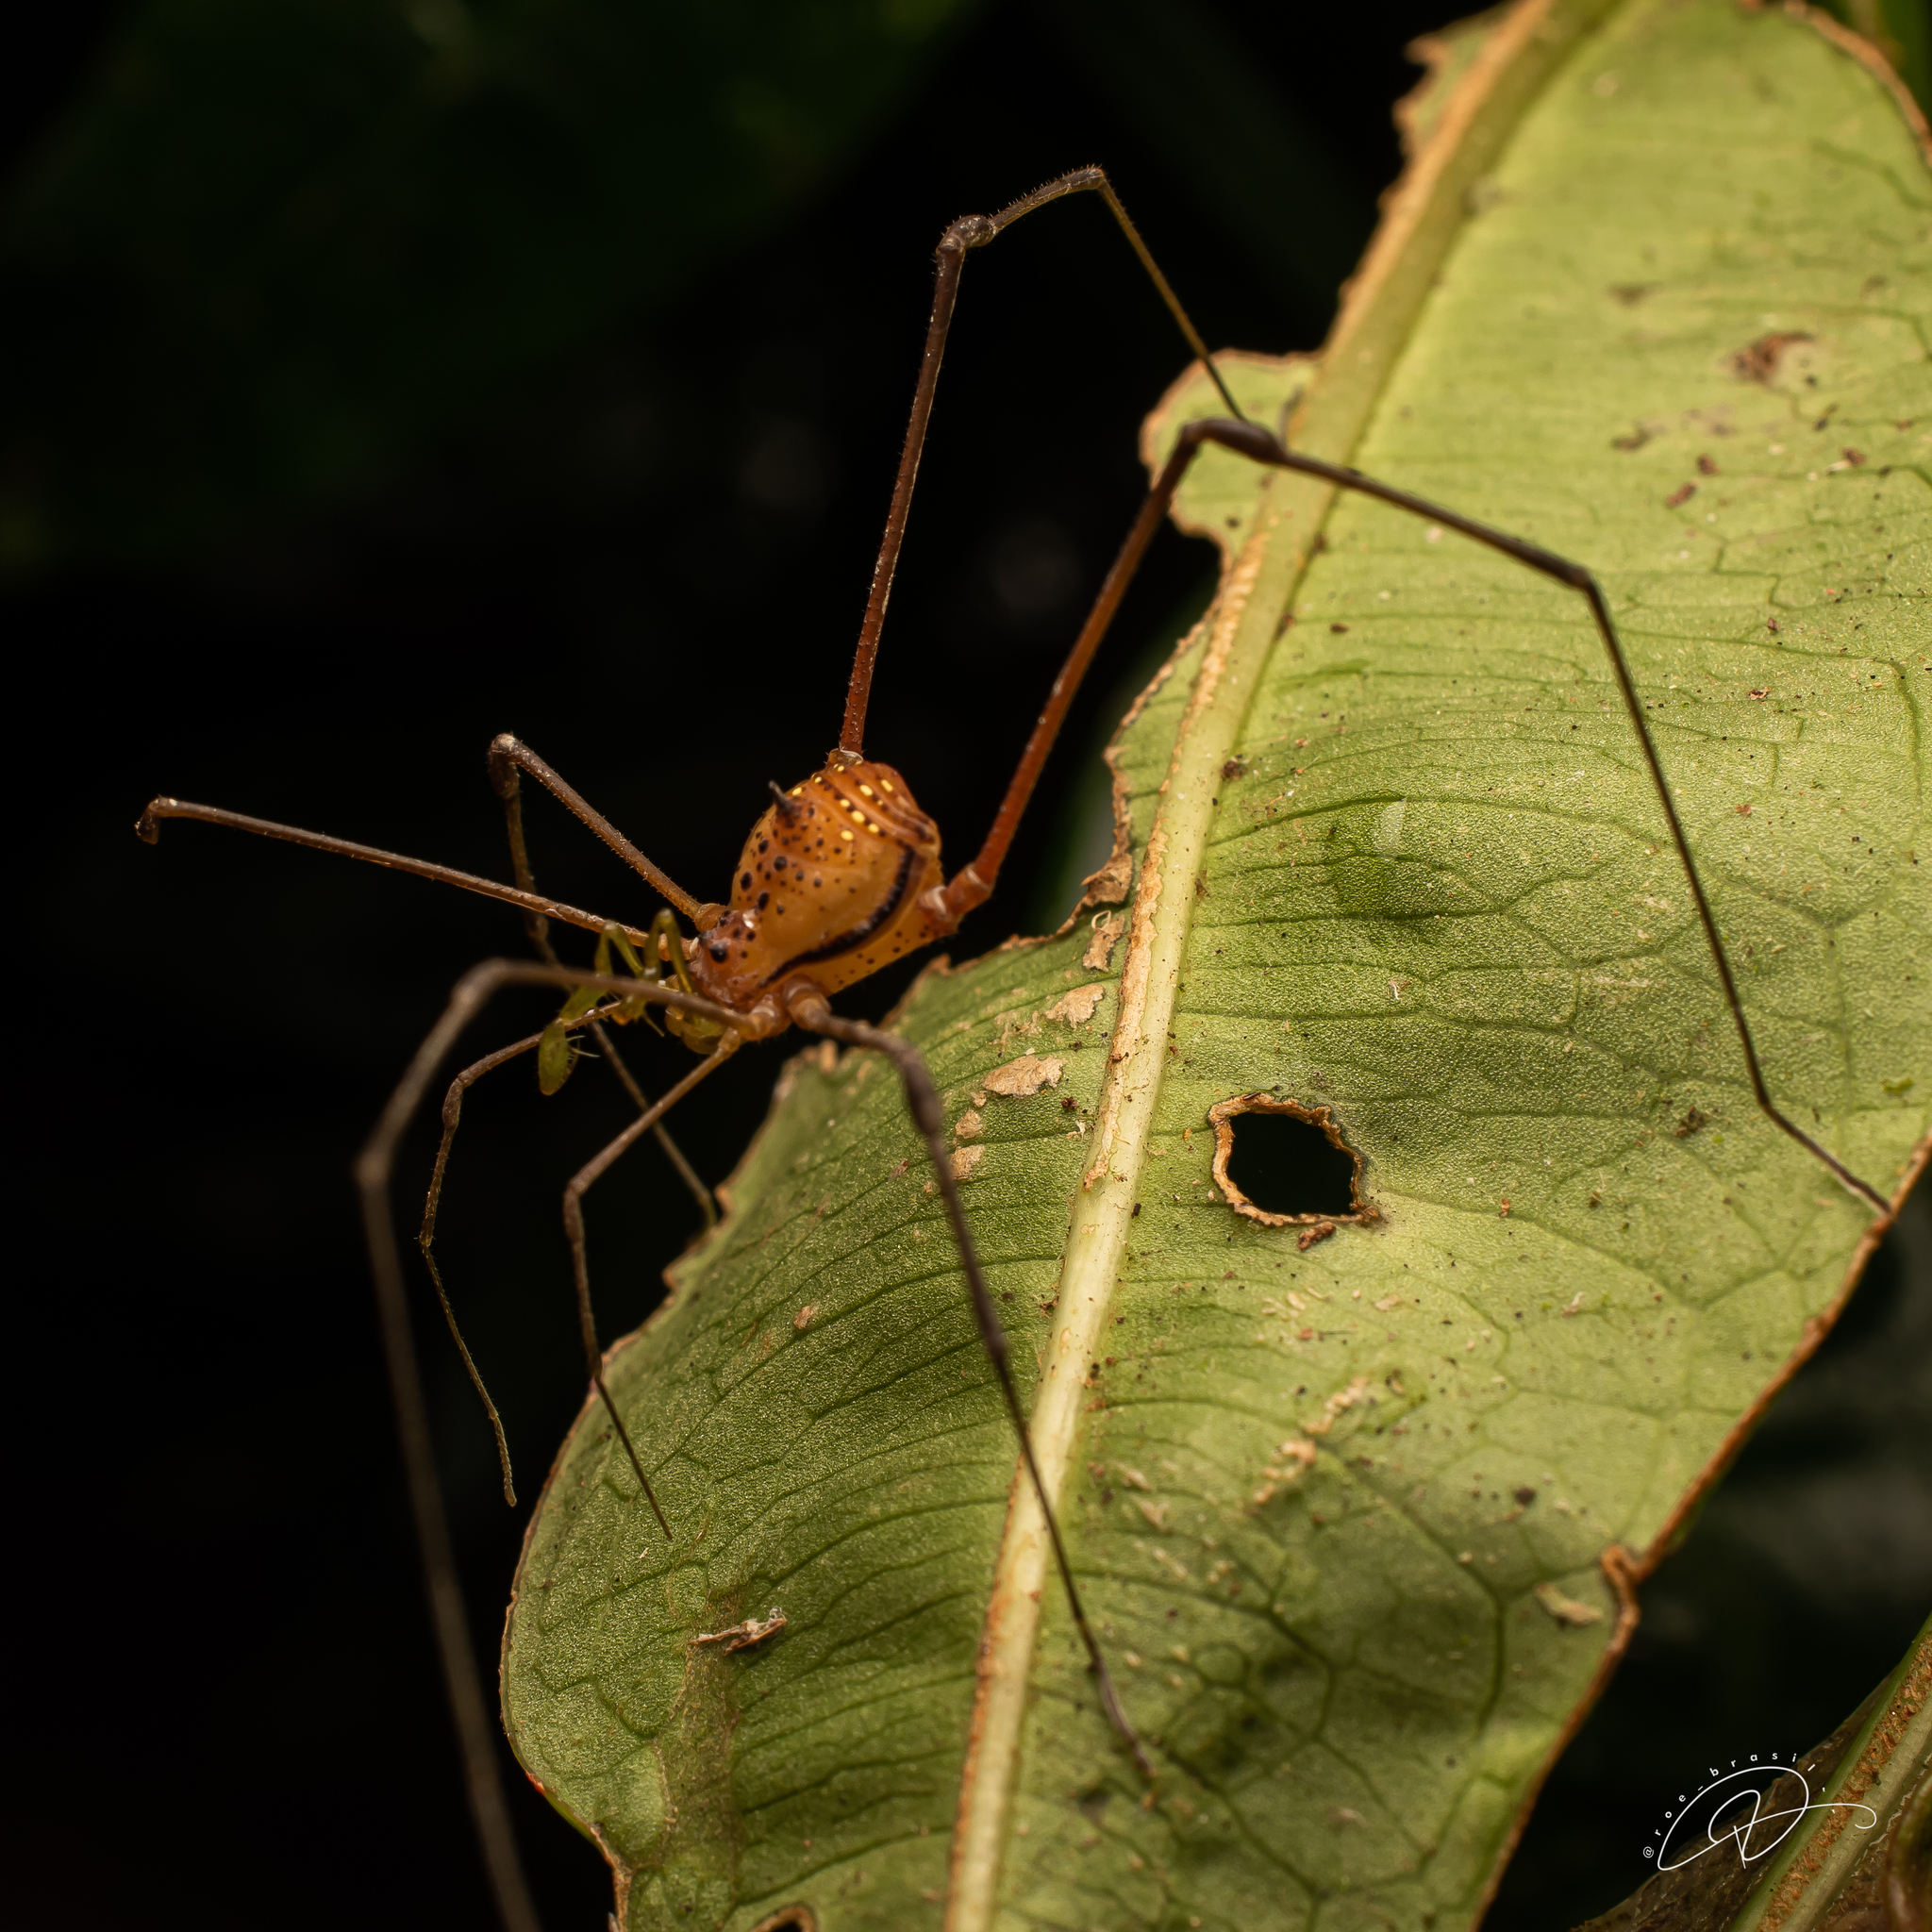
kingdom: Animalia
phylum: Arthropoda
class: Arachnida
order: Opiliones
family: Gonyleptidae
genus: Pristocnemus
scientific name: Pristocnemus pustulatus
